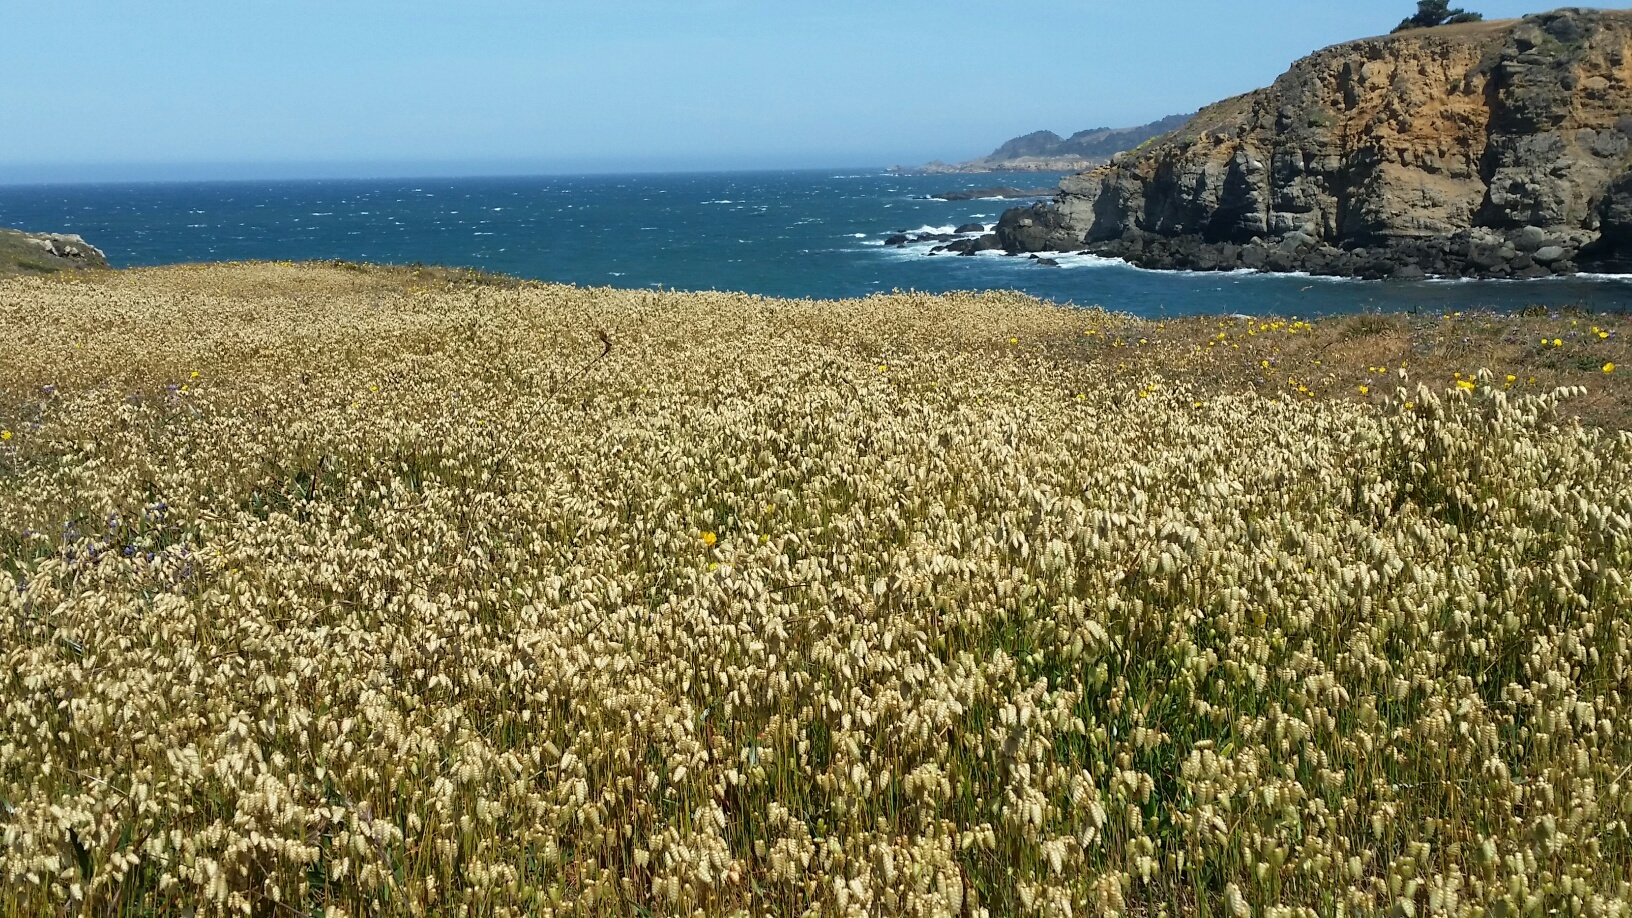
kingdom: Plantae
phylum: Tracheophyta
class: Liliopsida
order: Poales
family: Poaceae
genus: Briza
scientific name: Briza maxima
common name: Big quakinggrass
